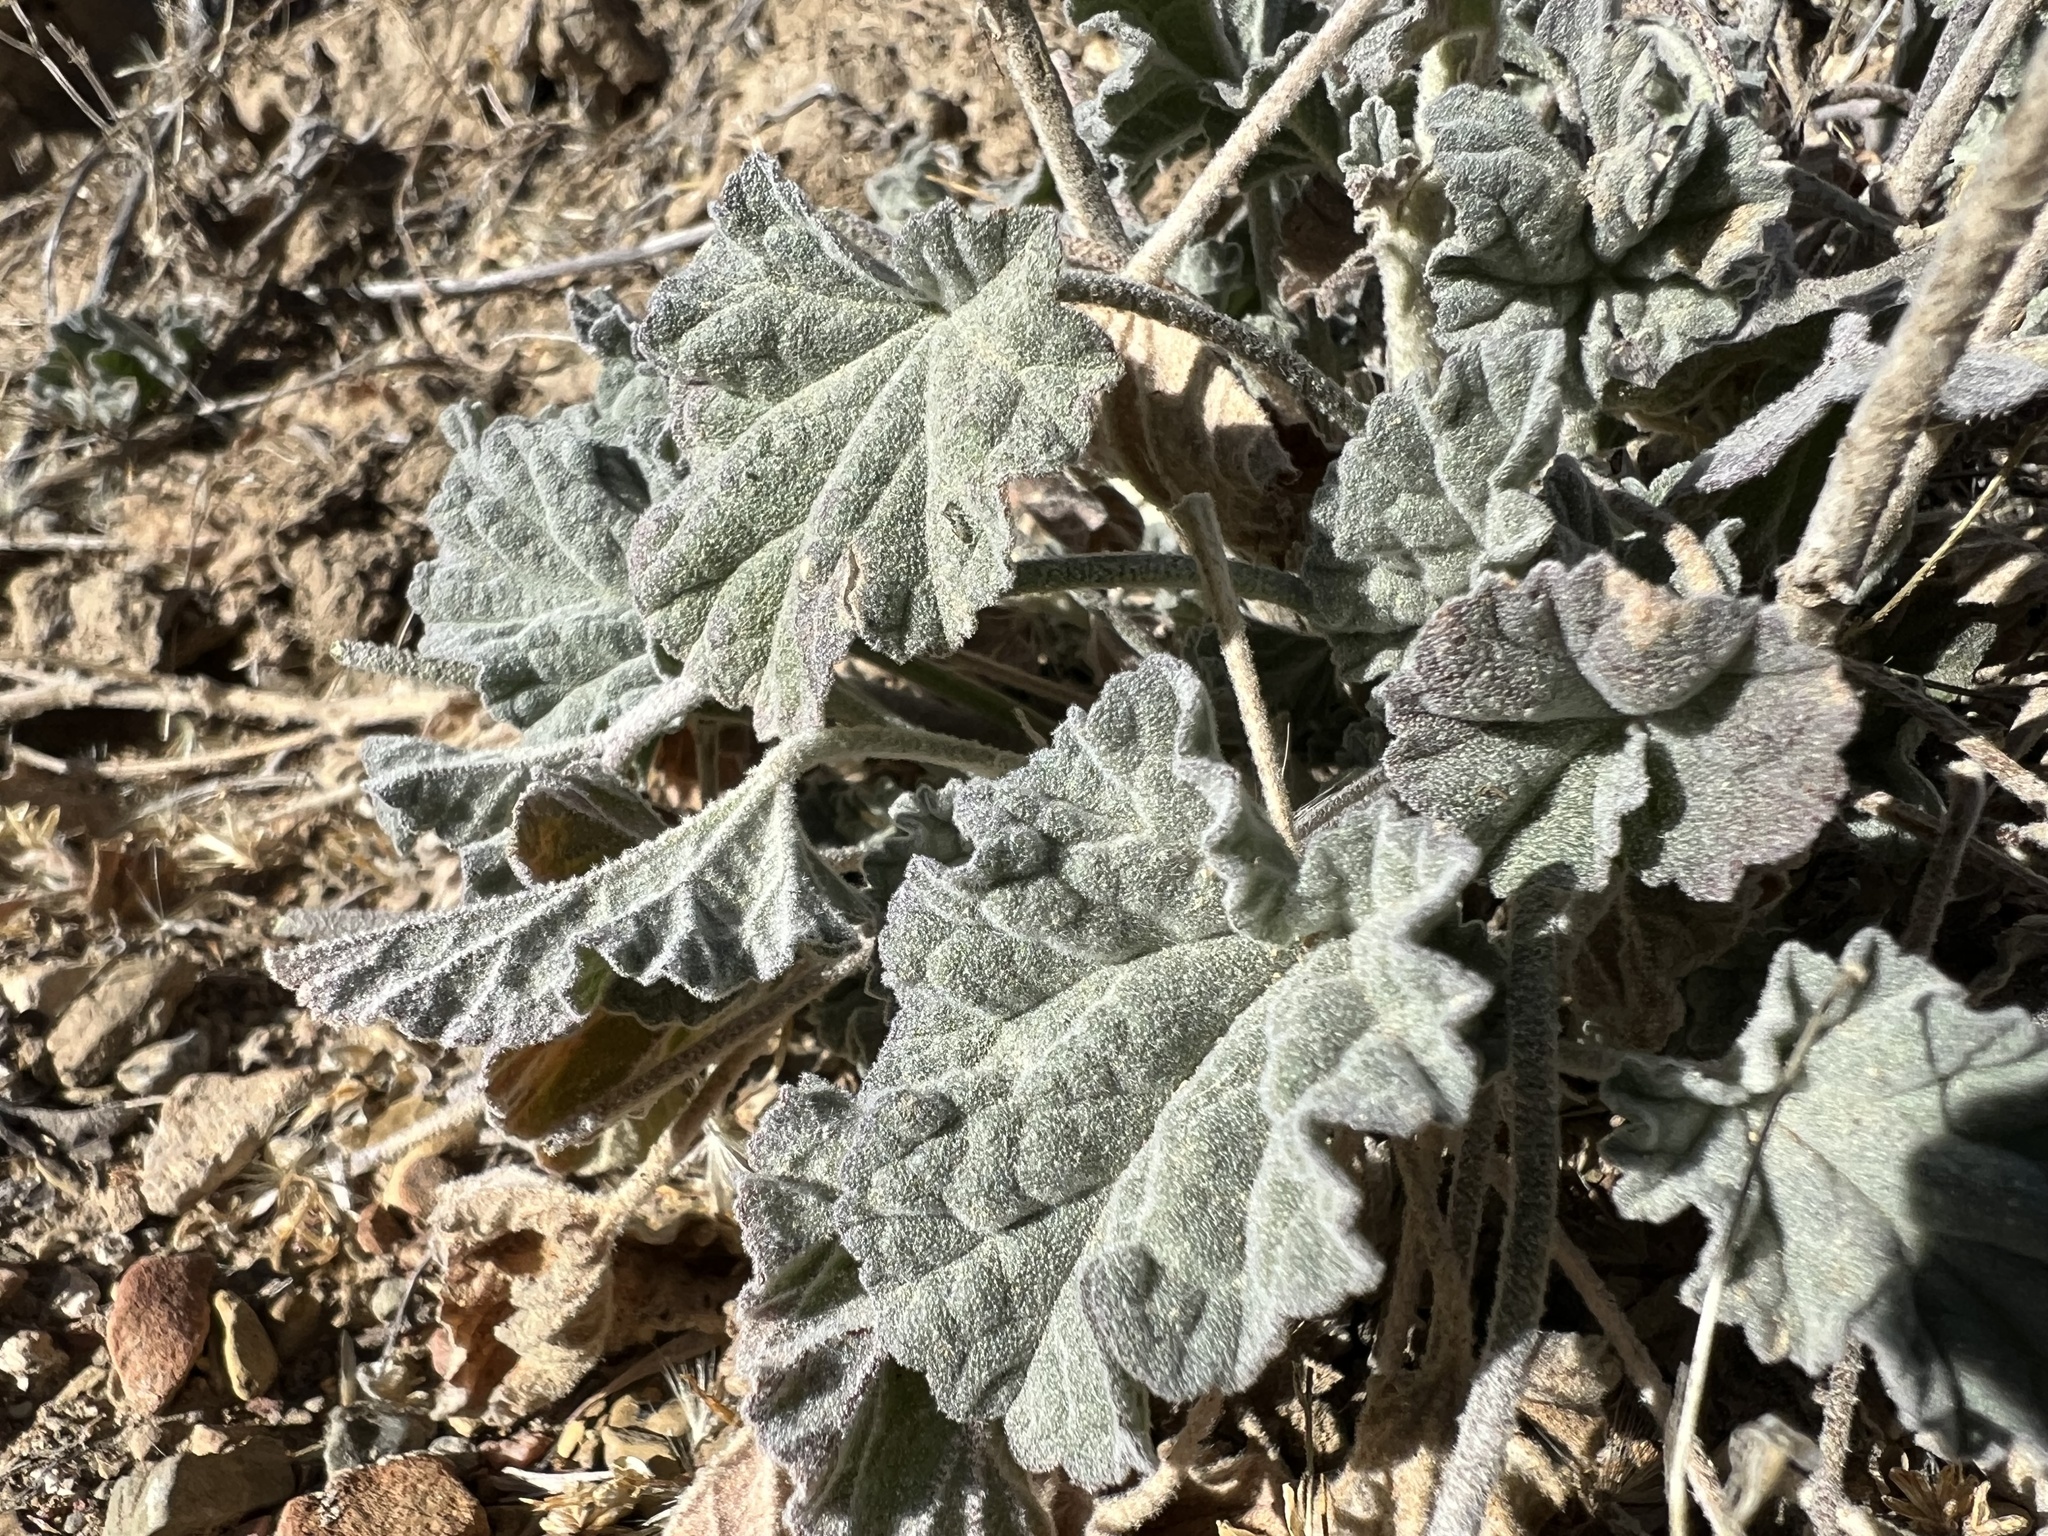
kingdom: Plantae
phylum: Tracheophyta
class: Magnoliopsida
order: Malvales
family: Malvaceae
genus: Sphaeralcea
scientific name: Sphaeralcea ambigua
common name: Apricot globe-mallow
